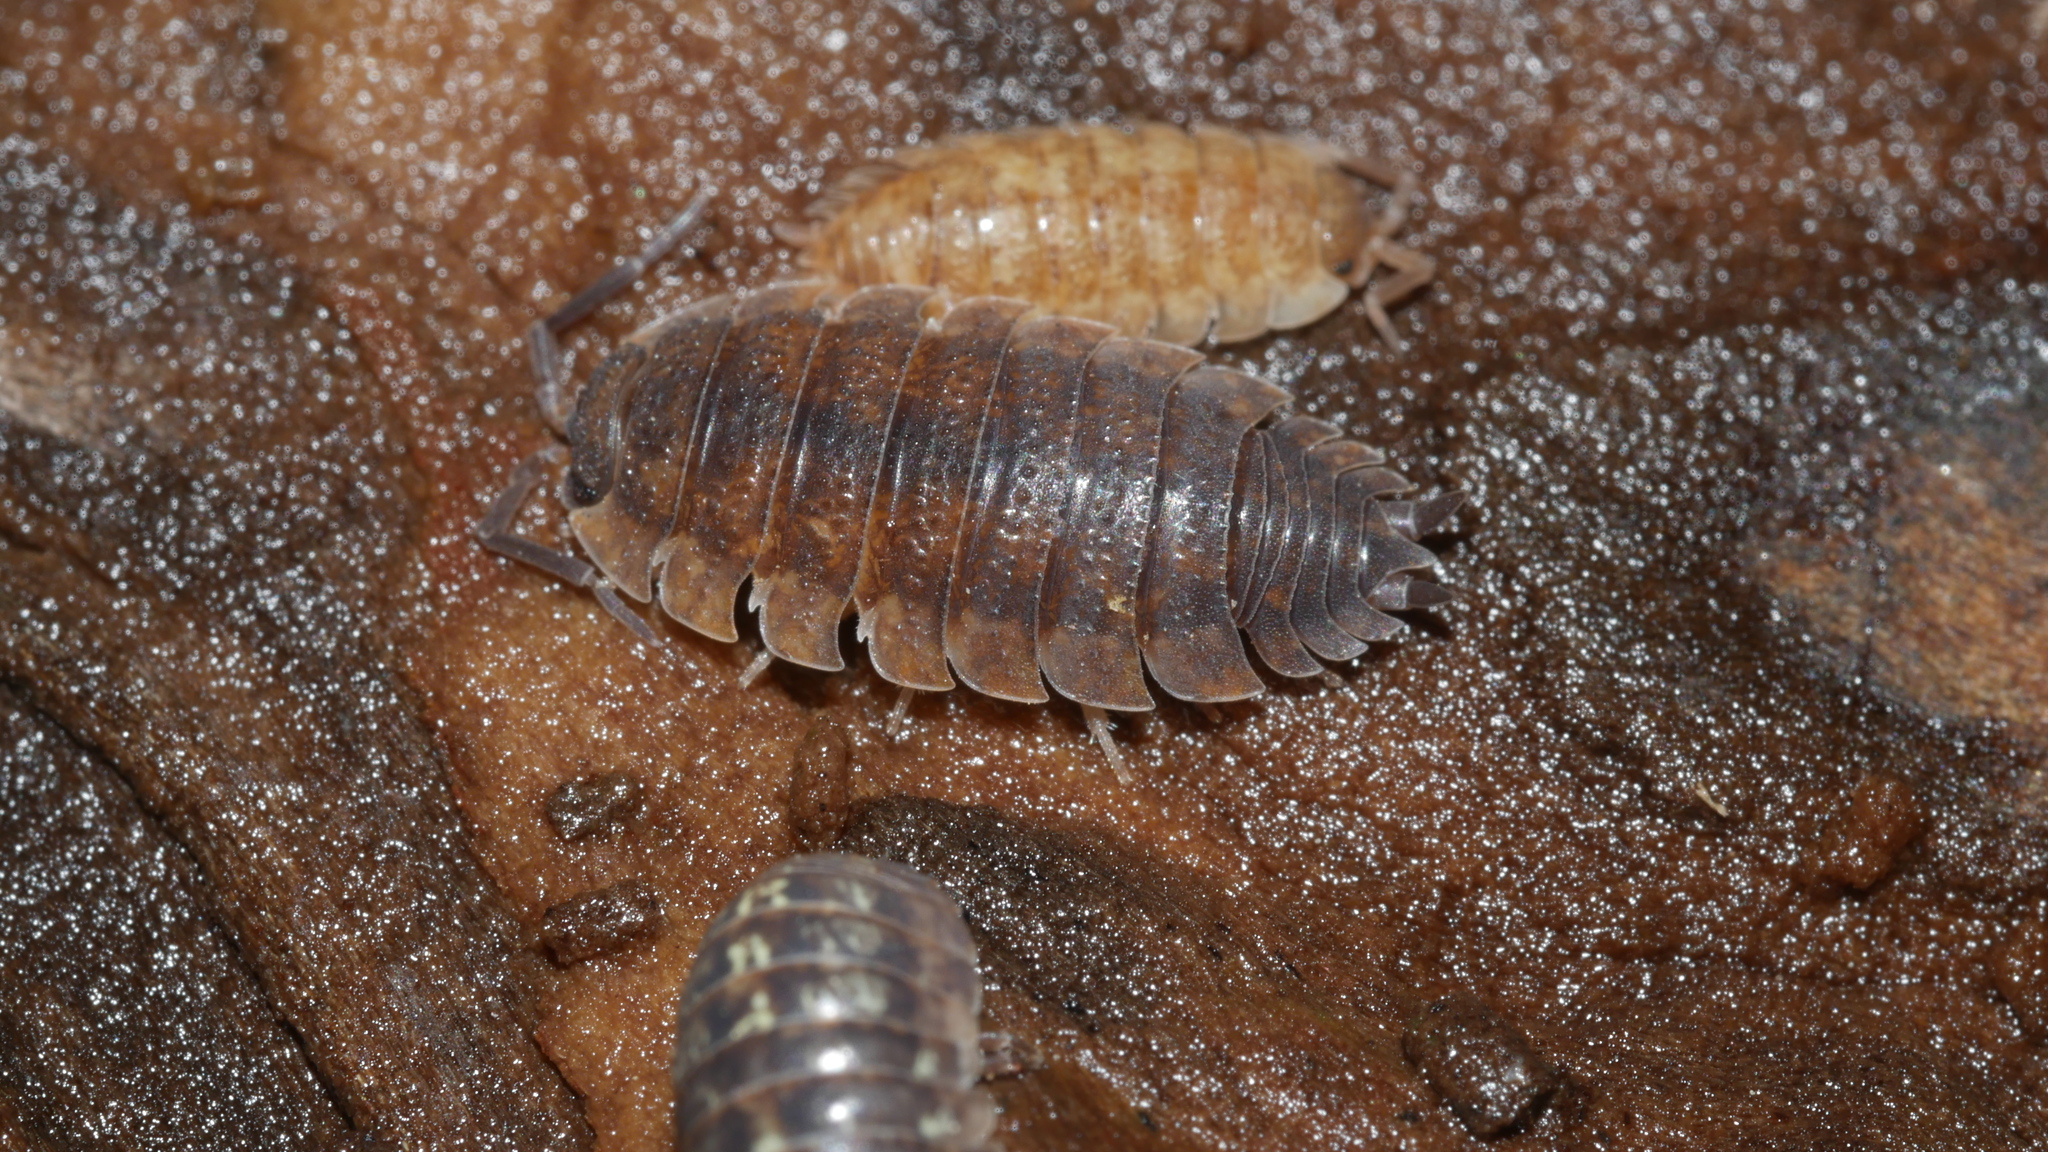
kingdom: Animalia
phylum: Arthropoda
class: Malacostraca
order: Isopoda
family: Porcellionidae
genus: Porcellio
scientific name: Porcellio scaber
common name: Common rough woodlouse
